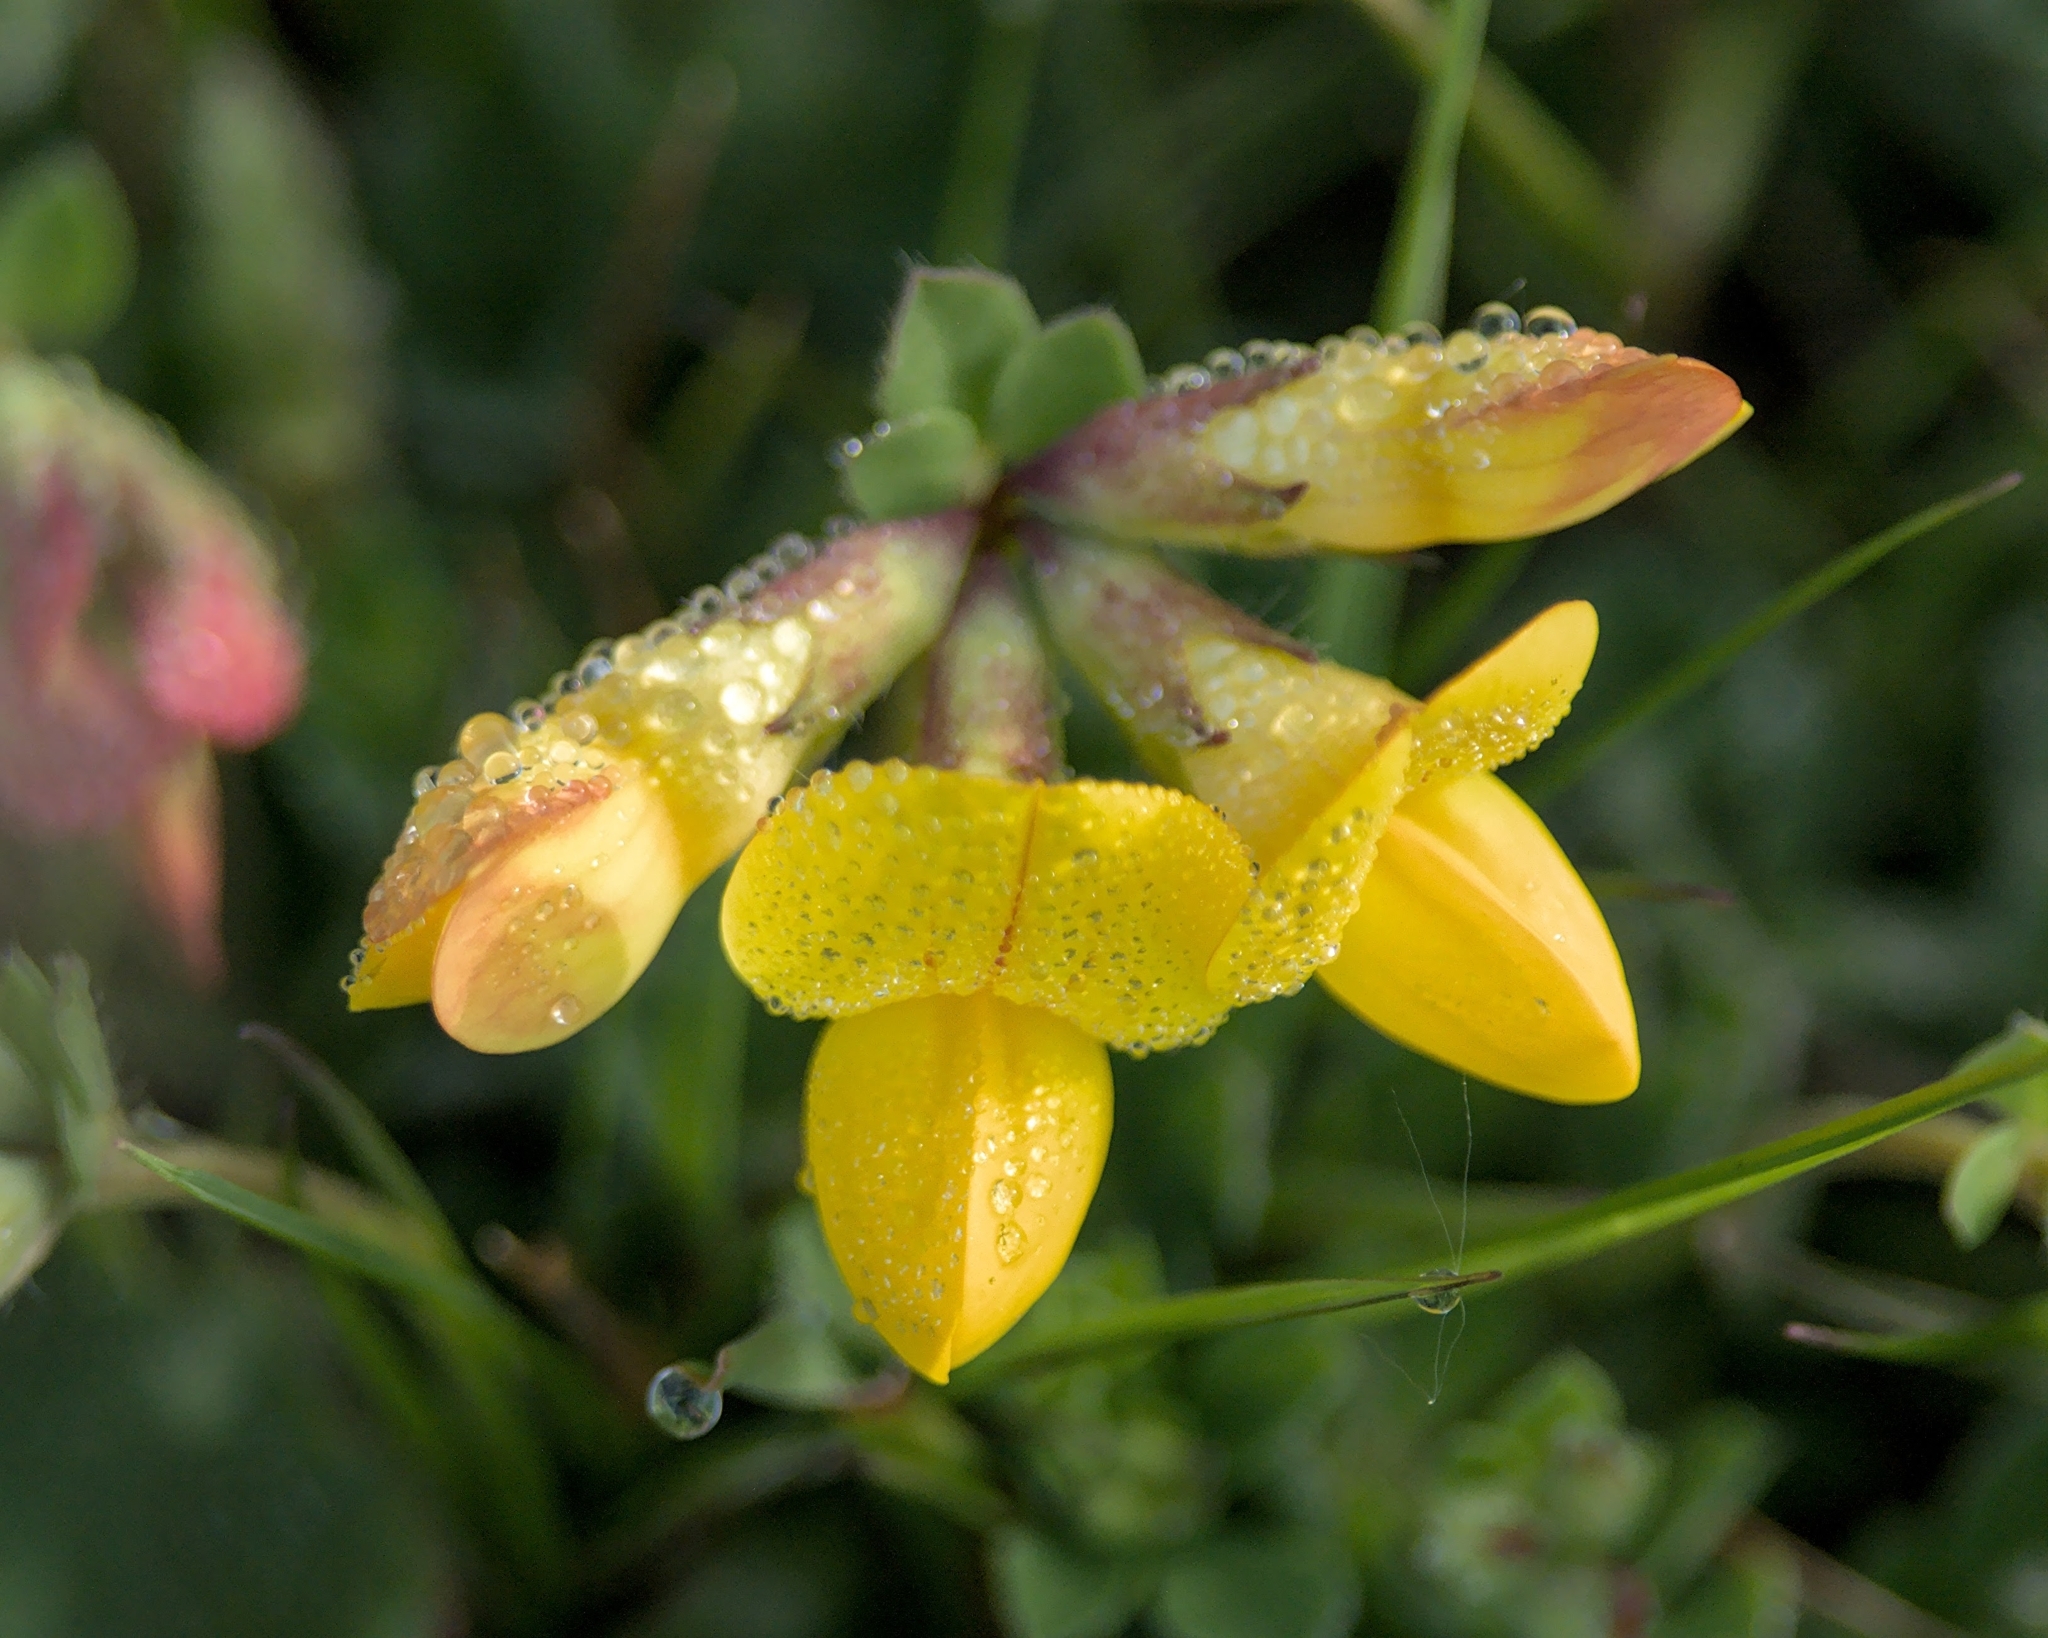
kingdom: Plantae
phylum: Tracheophyta
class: Magnoliopsida
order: Fabales
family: Fabaceae
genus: Lotus
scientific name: Lotus corniculatus
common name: Common bird's-foot-trefoil
